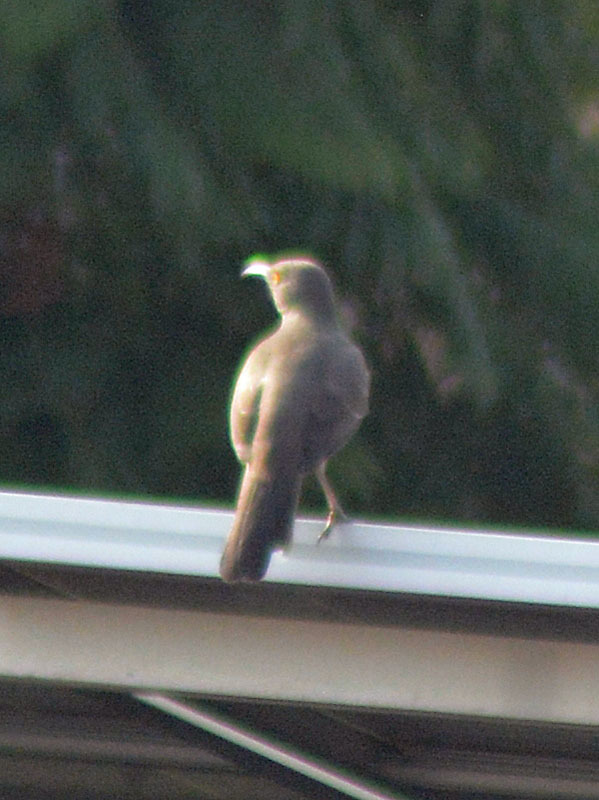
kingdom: Animalia
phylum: Chordata
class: Aves
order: Passeriformes
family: Mimidae
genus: Toxostoma
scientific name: Toxostoma curvirostre
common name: Curve-billed thrasher
